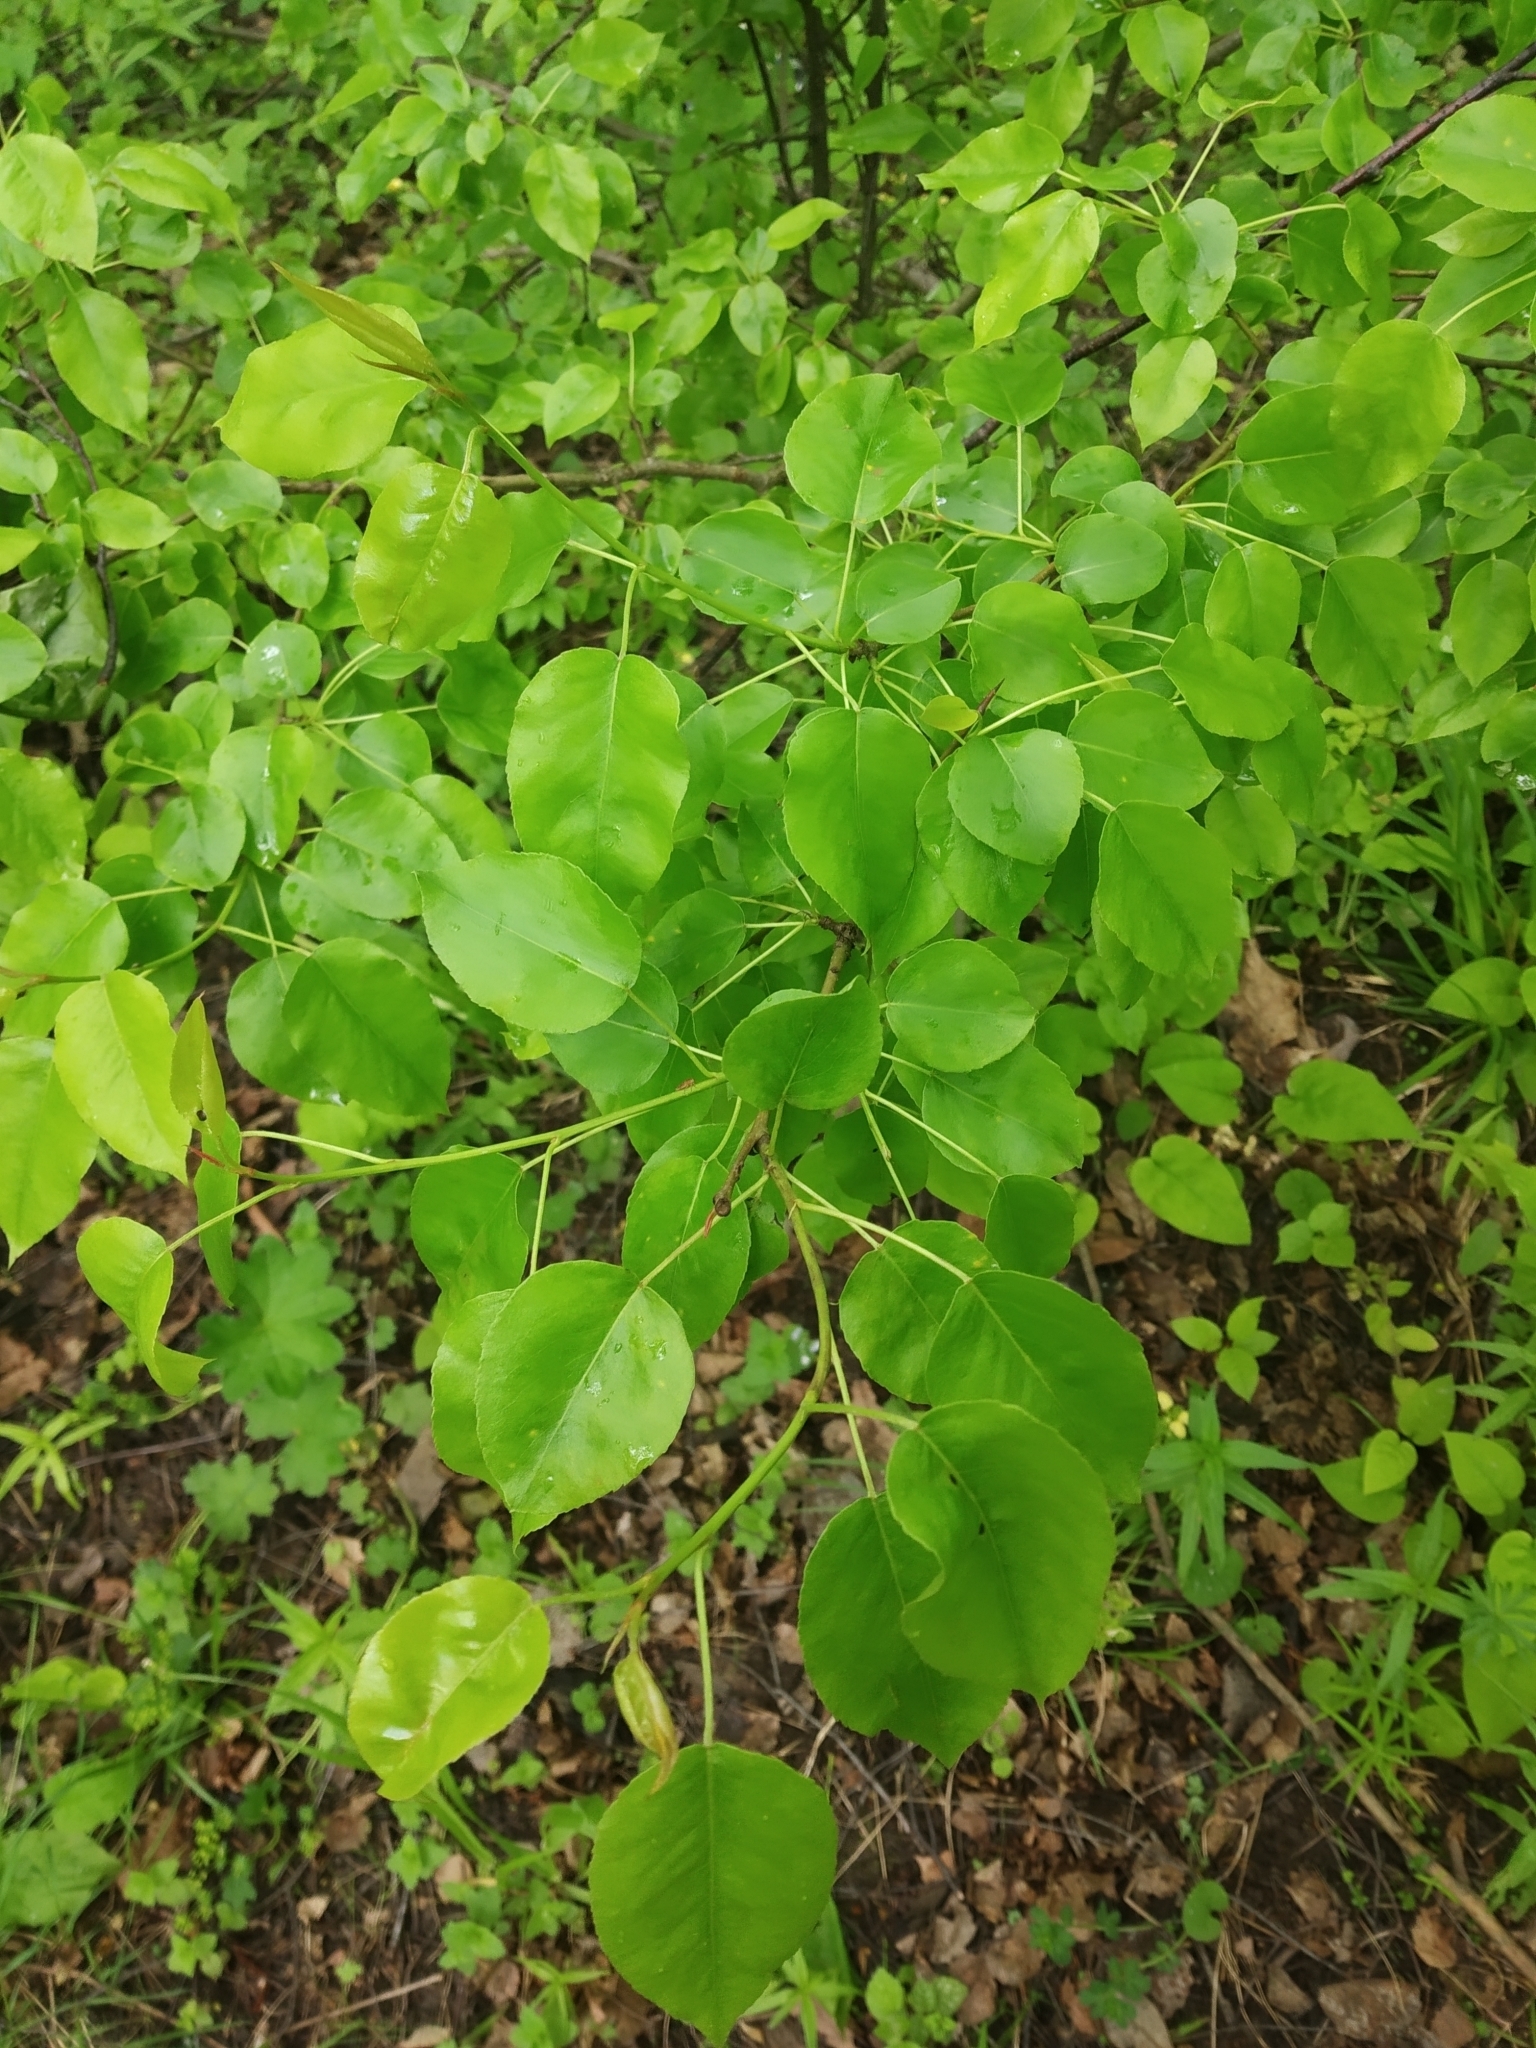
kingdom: Plantae
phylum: Tracheophyta
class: Magnoliopsida
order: Rosales
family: Rosaceae
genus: Pyrus
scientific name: Pyrus communis
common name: Pear
